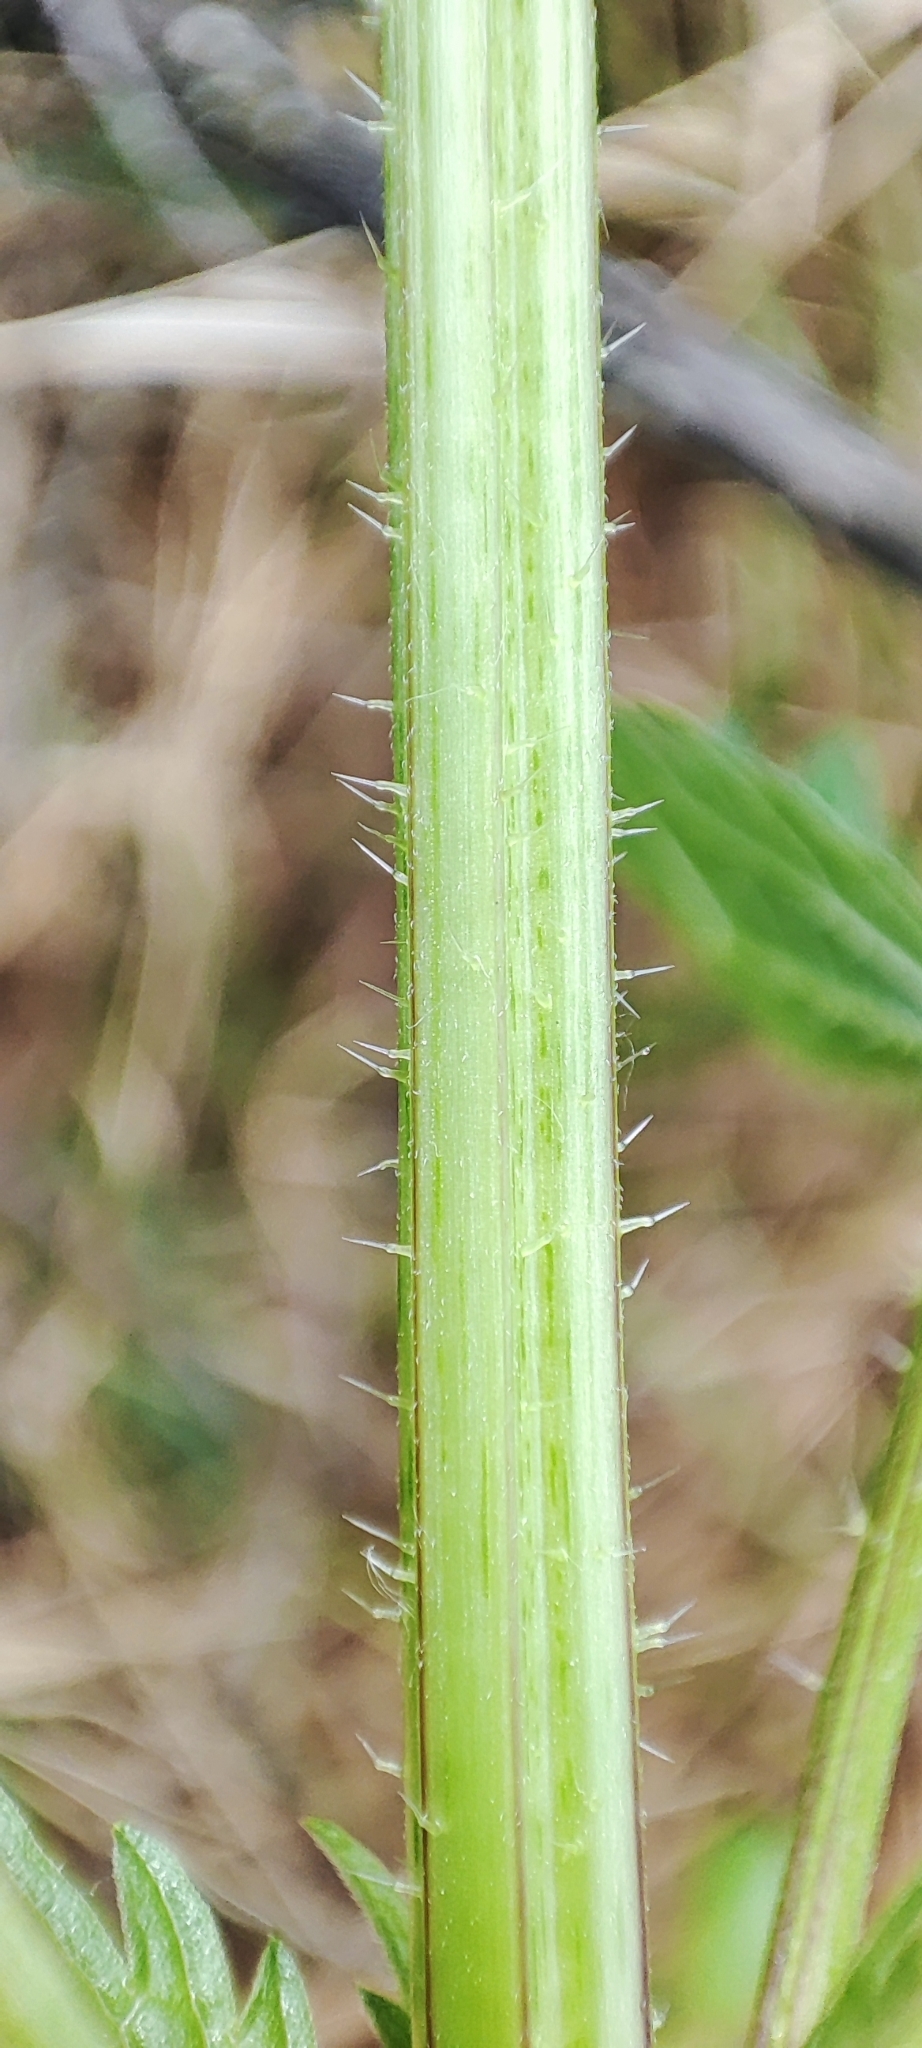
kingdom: Plantae
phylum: Tracheophyta
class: Magnoliopsida
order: Rosales
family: Urticaceae
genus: Urtica
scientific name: Urtica dioica
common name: Common nettle
